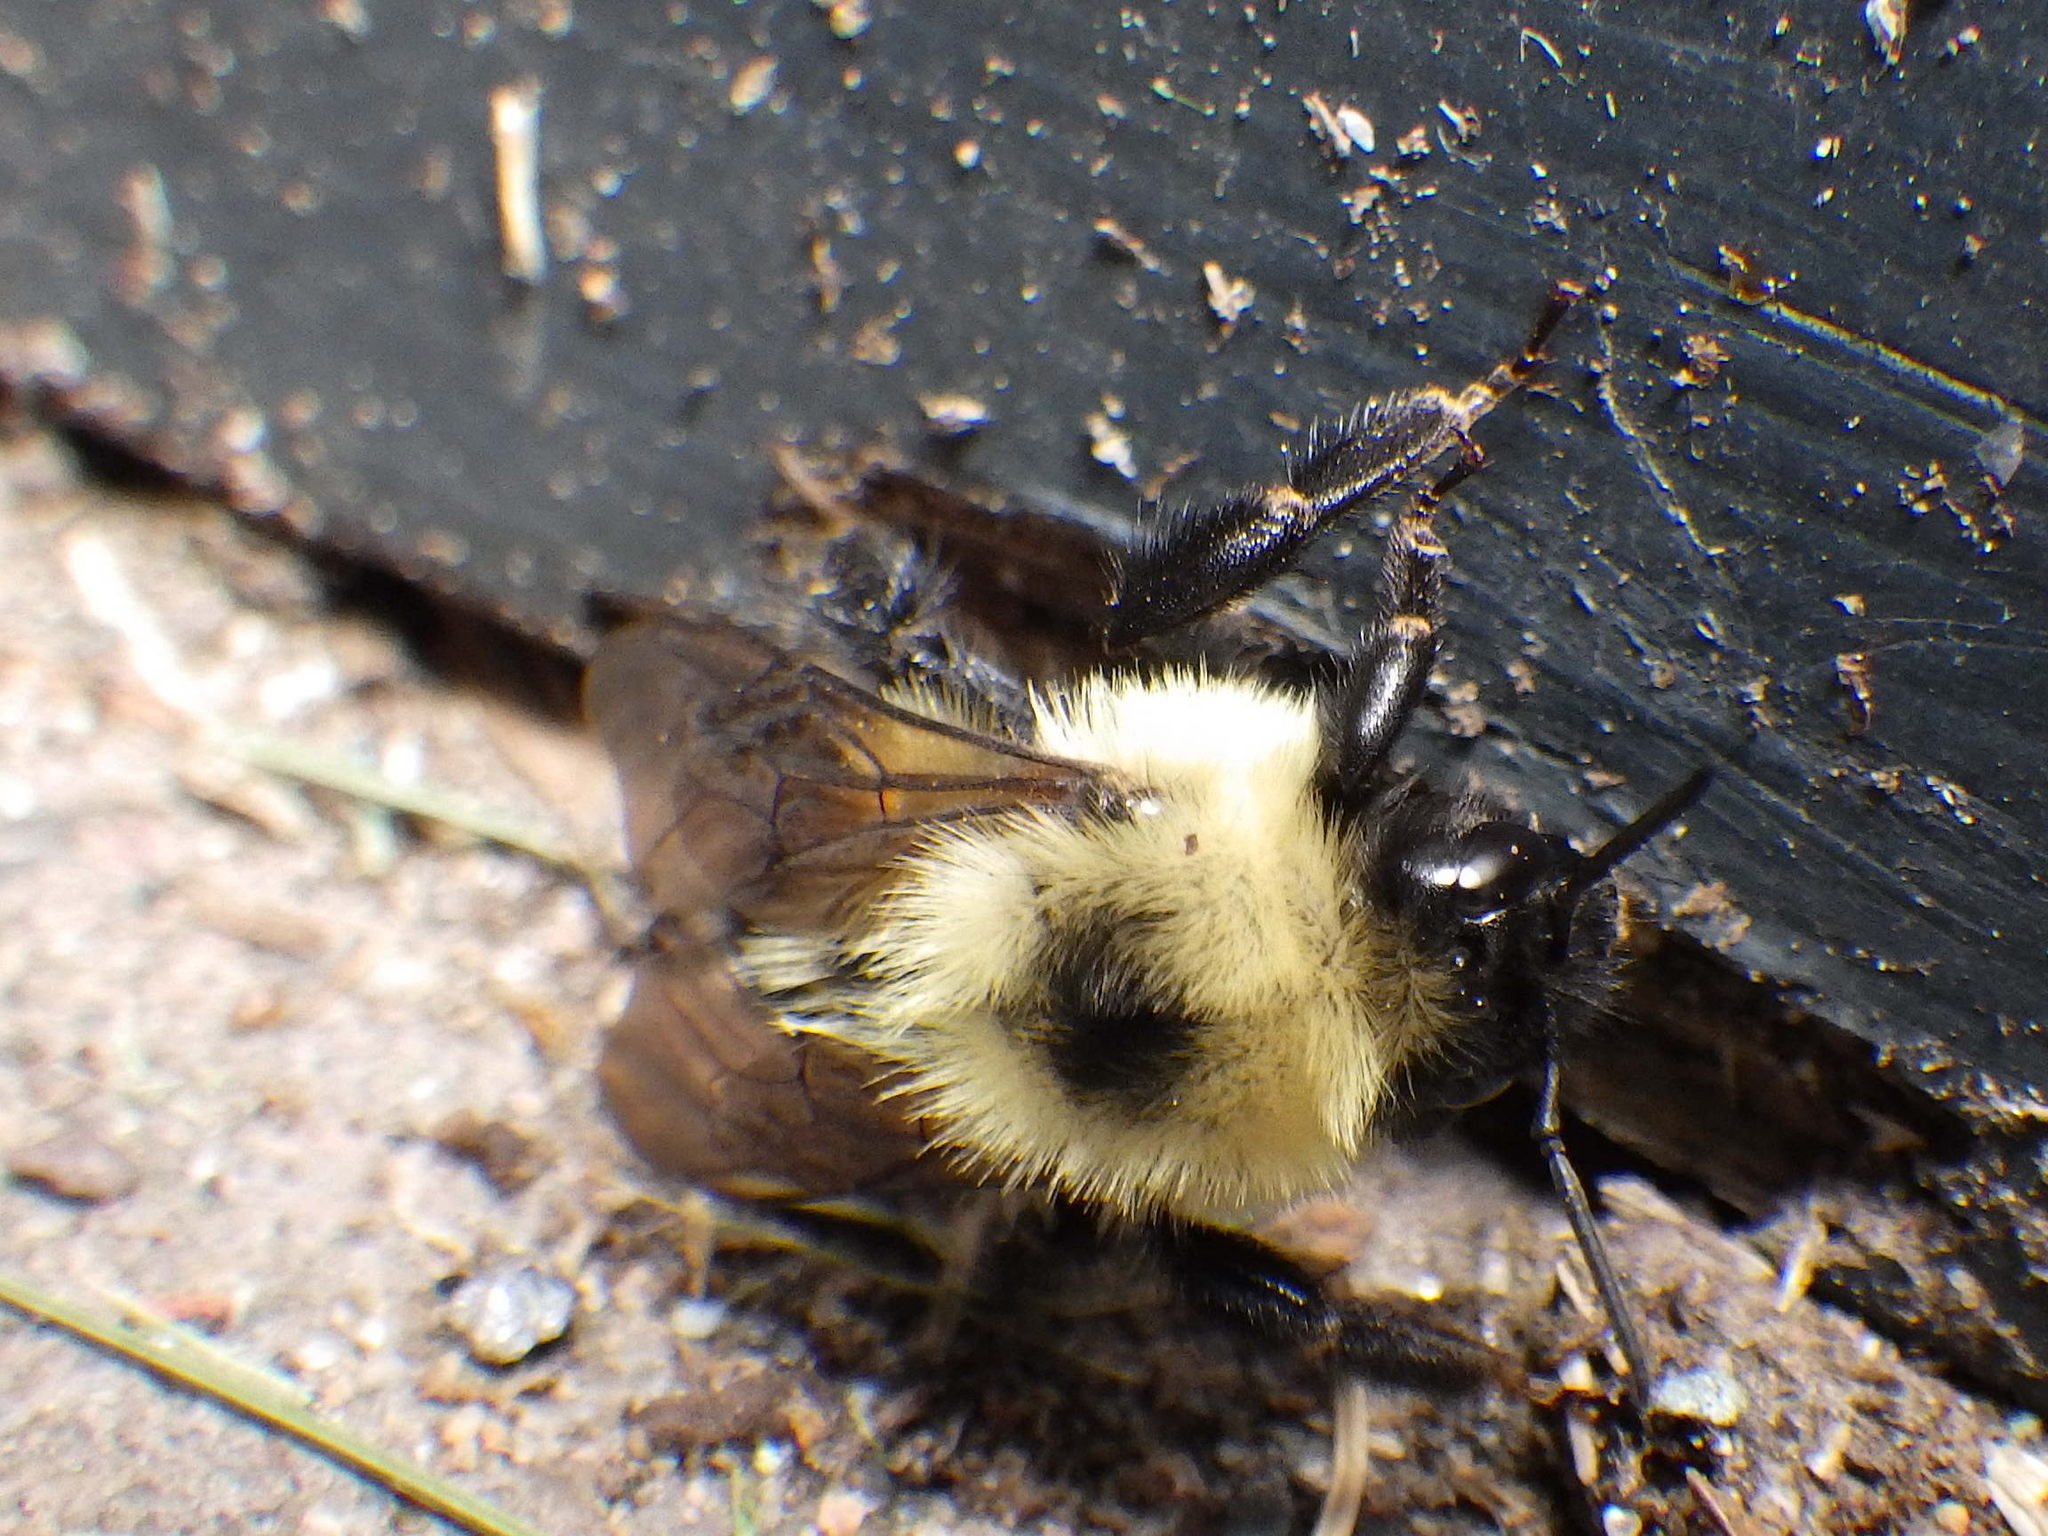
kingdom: Animalia
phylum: Arthropoda
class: Insecta
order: Hymenoptera
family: Apidae
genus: Bombus
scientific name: Bombus bimaculatus
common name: Two-spotted bumble bee
